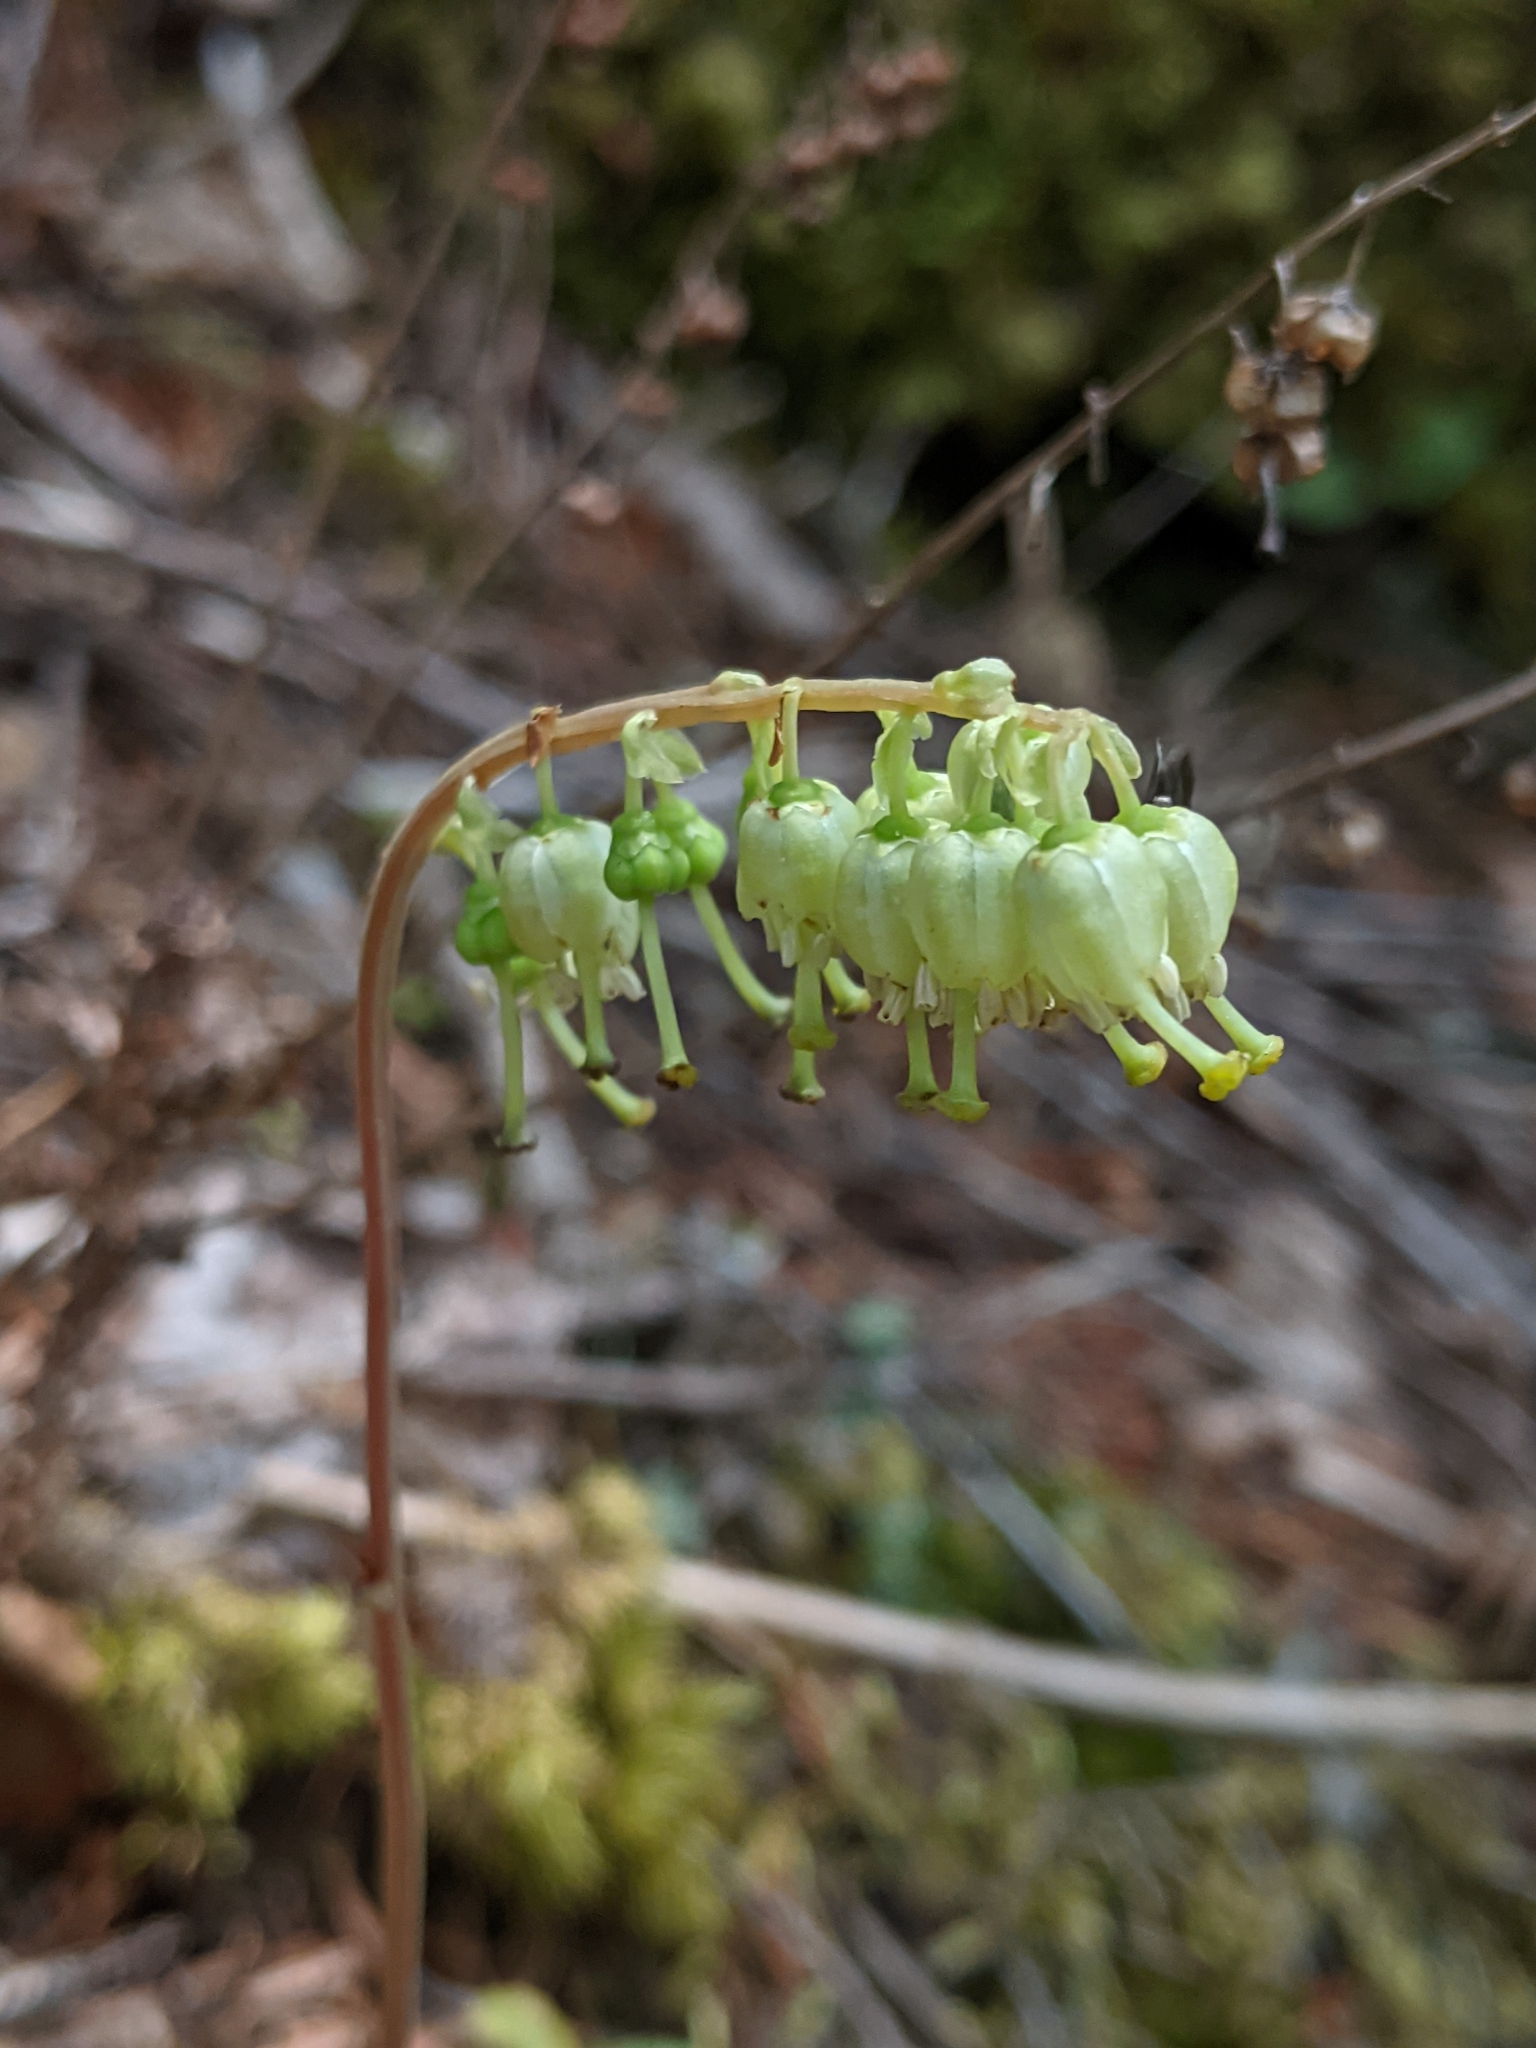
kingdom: Plantae
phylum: Tracheophyta
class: Magnoliopsida
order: Ericales
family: Ericaceae
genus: Orthilia
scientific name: Orthilia secunda
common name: One-sided orthilia
